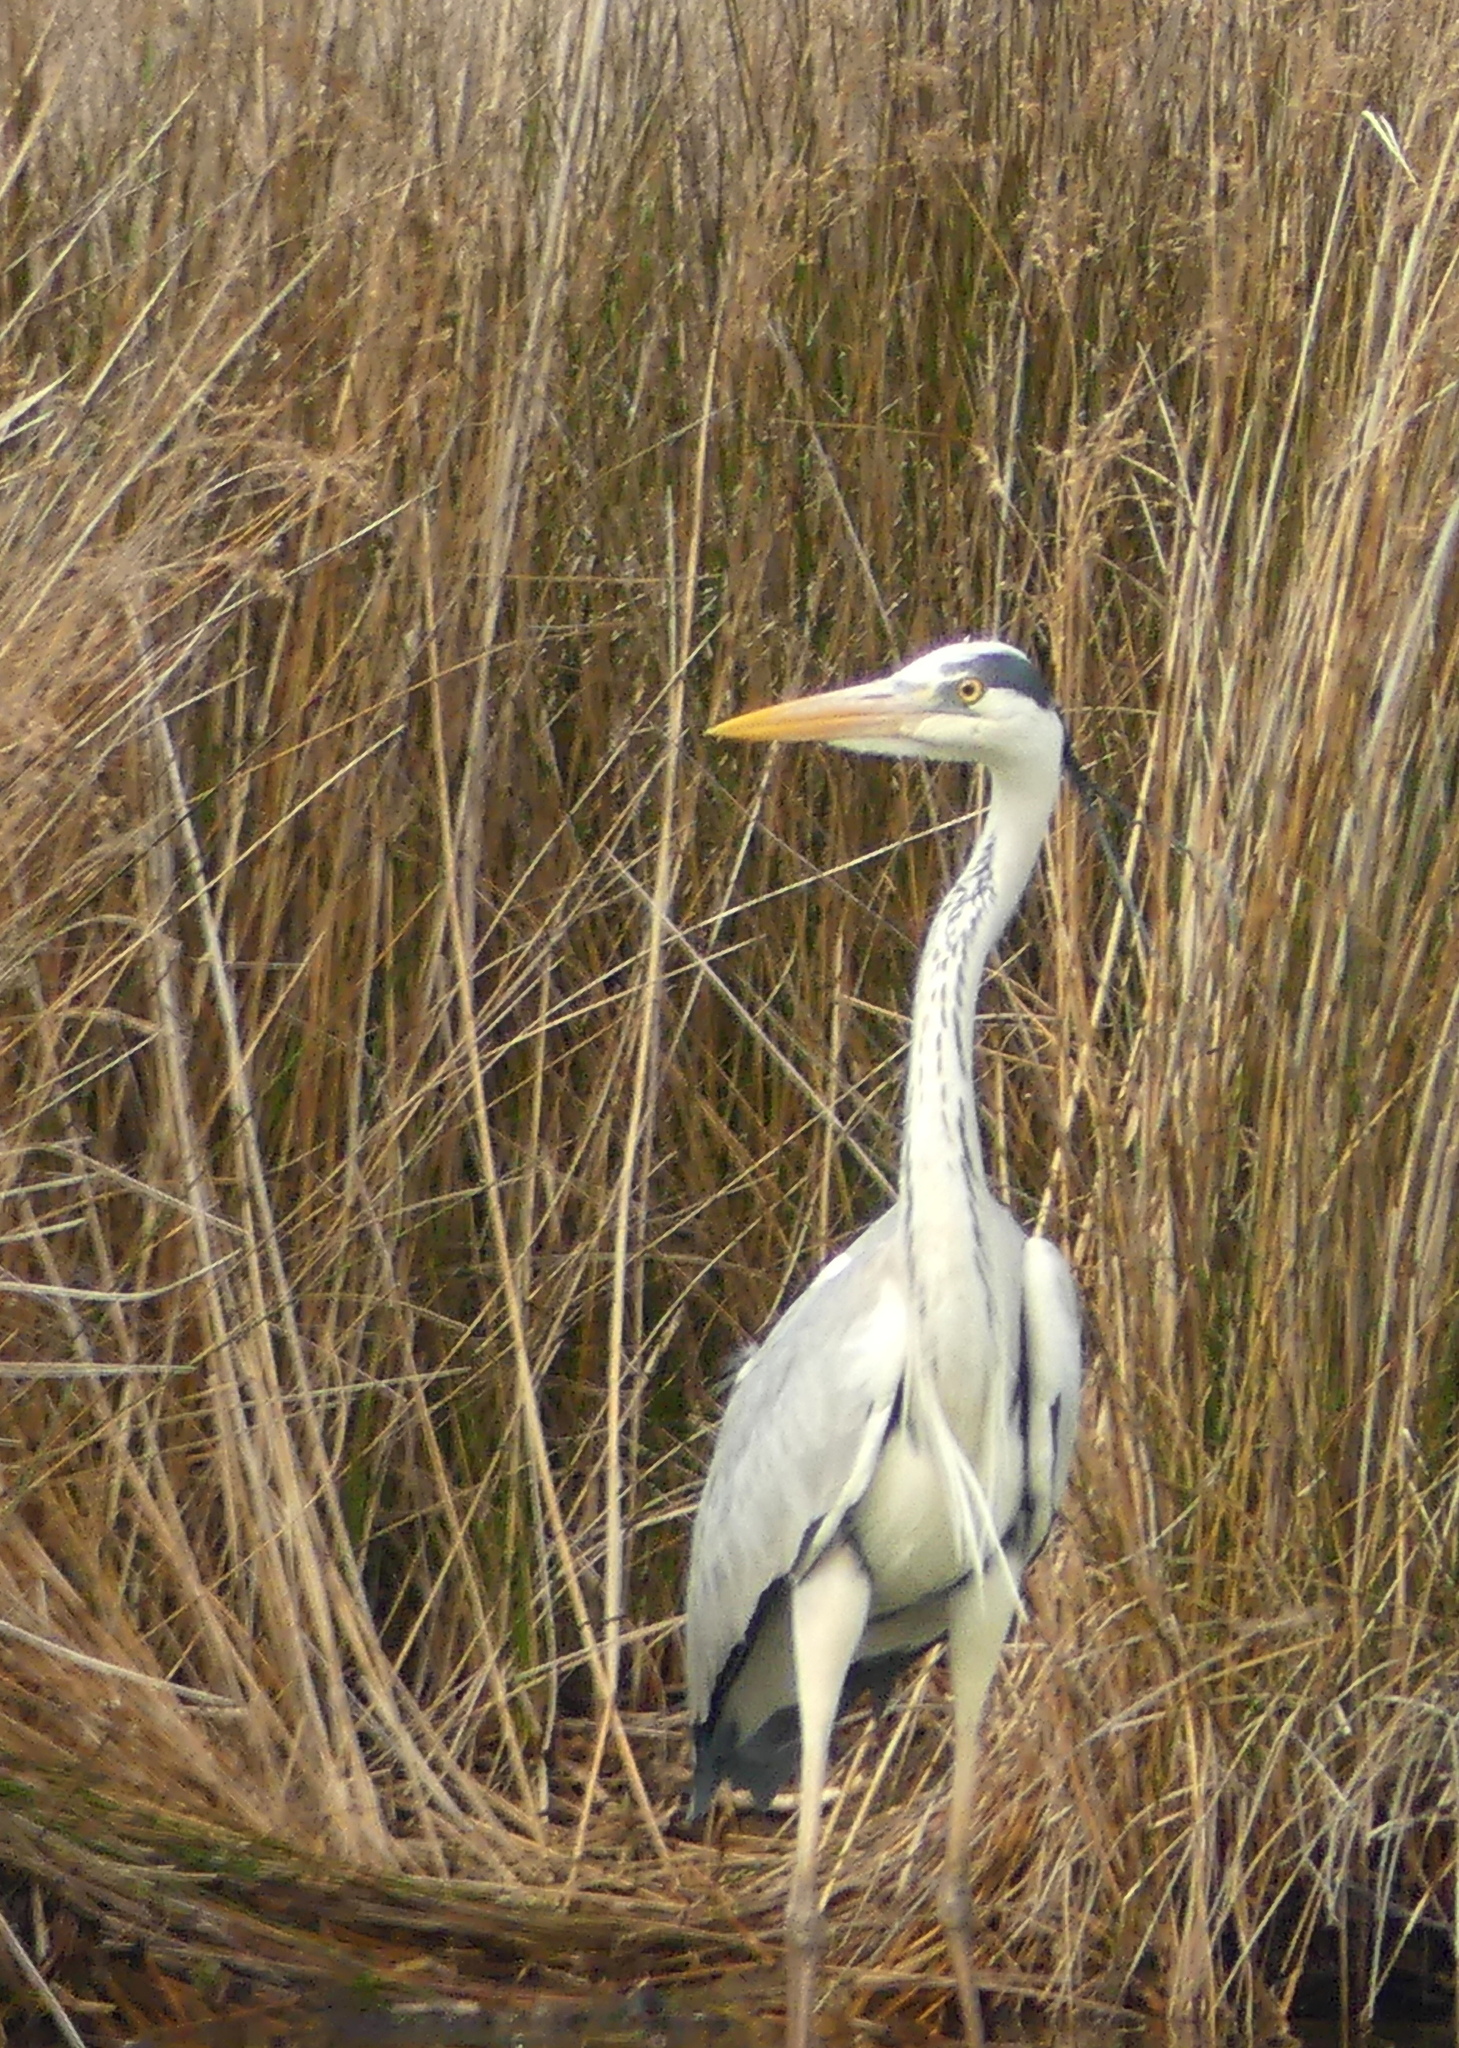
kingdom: Animalia
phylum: Chordata
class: Aves
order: Pelecaniformes
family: Ardeidae
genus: Ardea
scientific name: Ardea cinerea
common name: Grey heron
